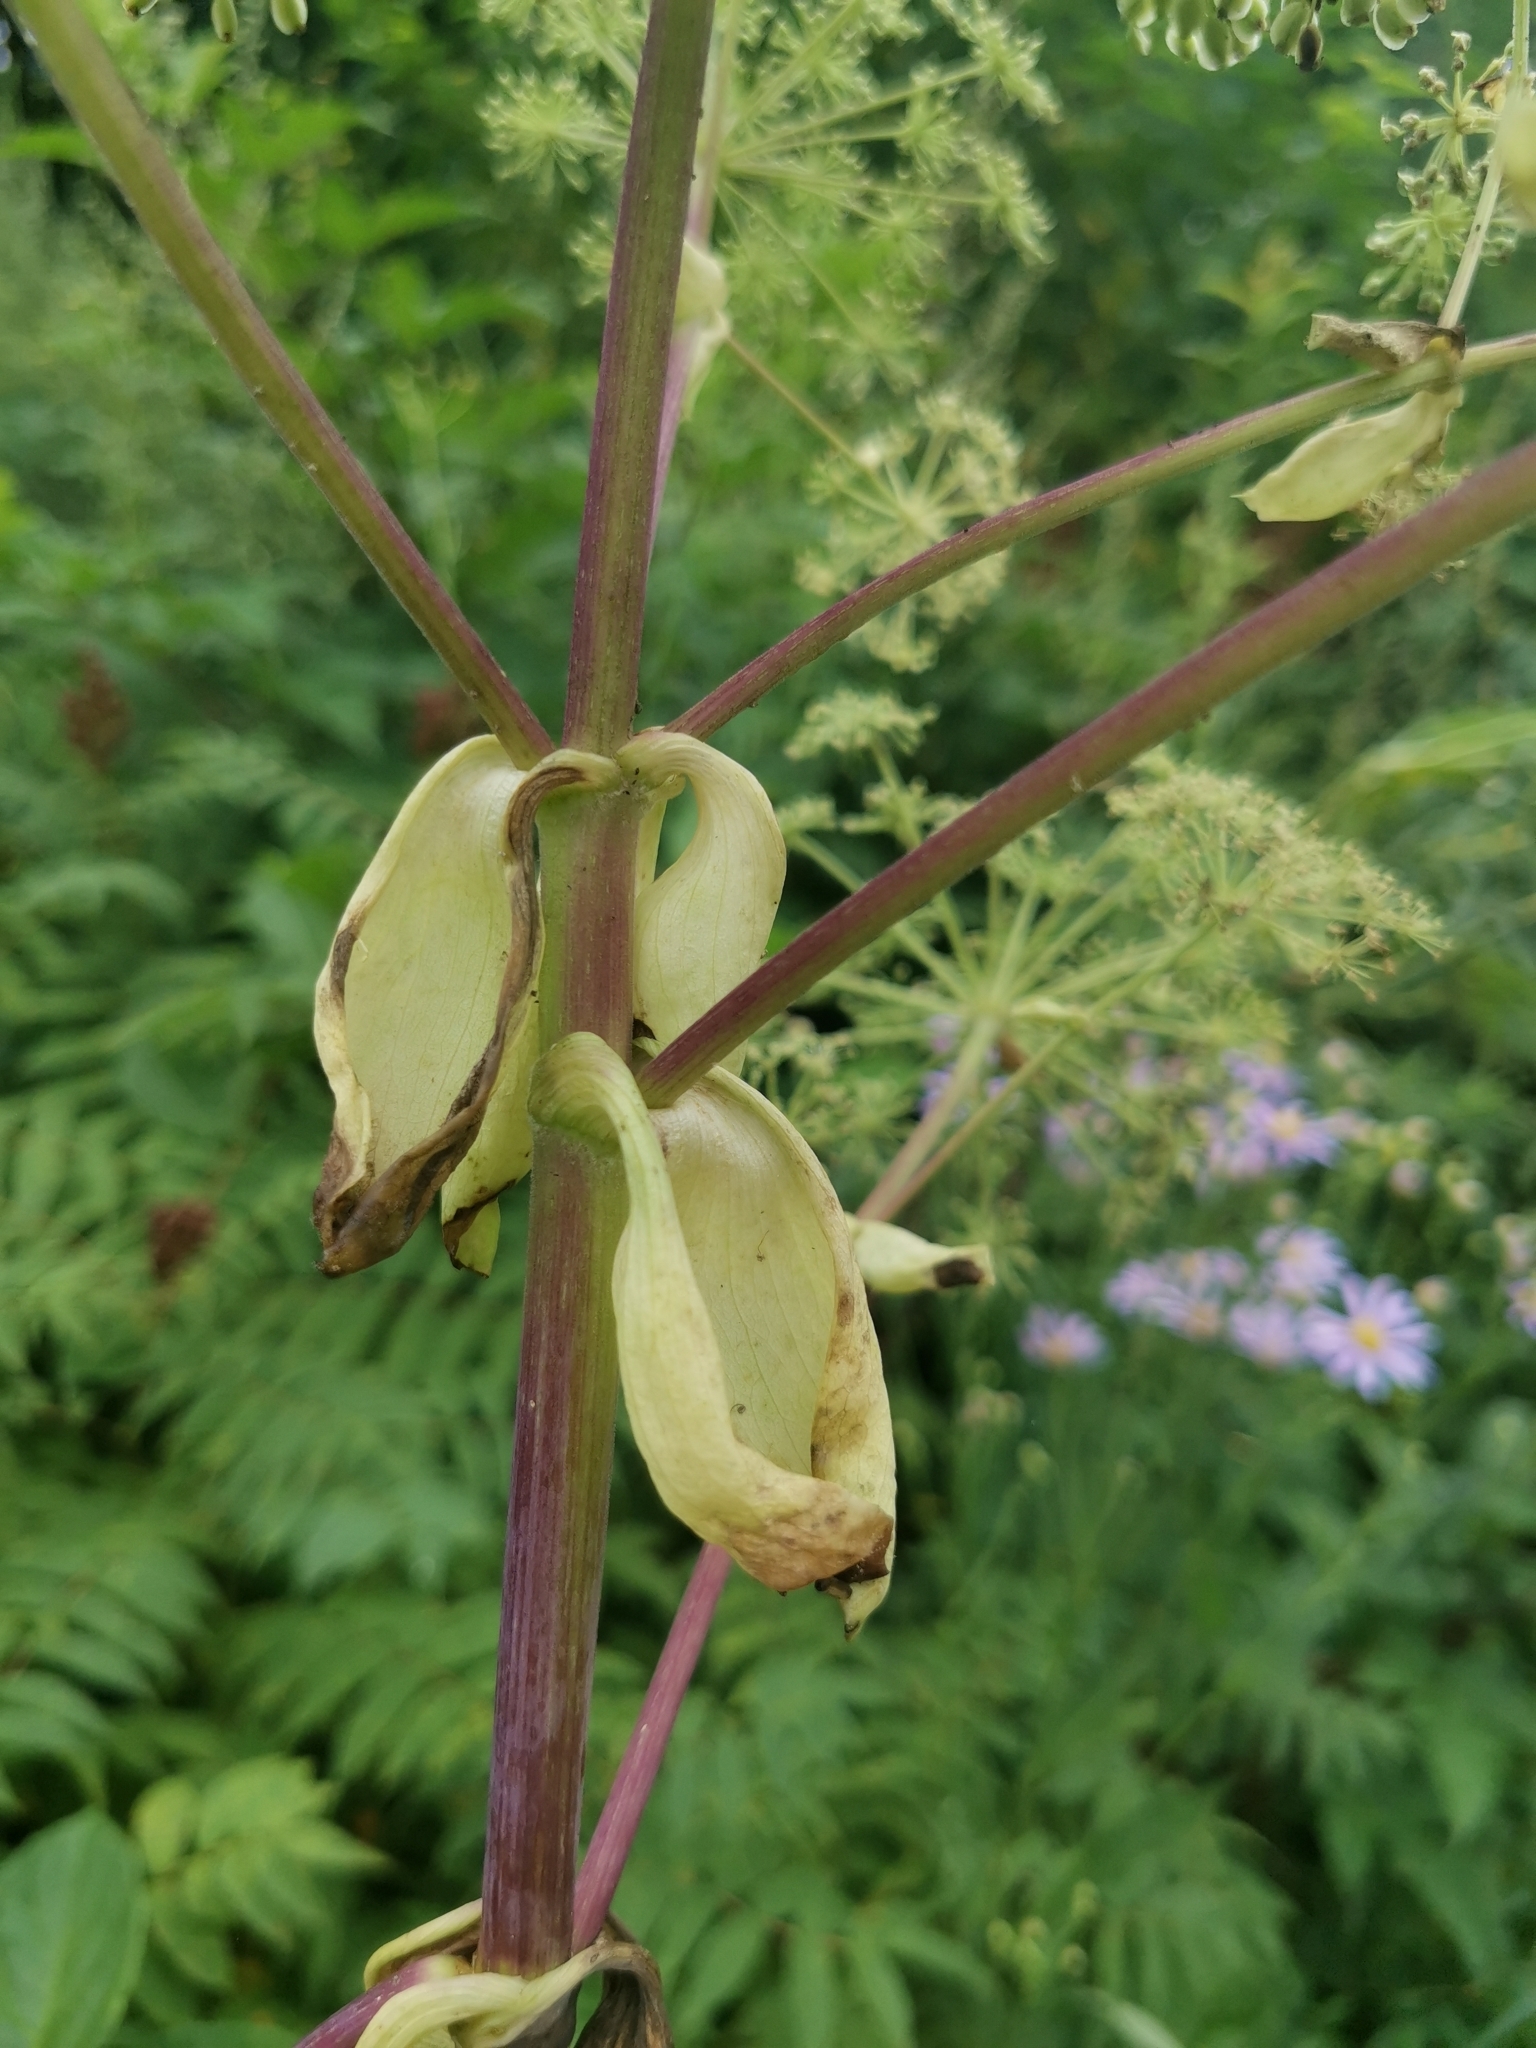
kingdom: Plantae
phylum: Tracheophyta
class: Magnoliopsida
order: Apiales
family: Apiaceae
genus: Angelica
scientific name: Angelica dahurica
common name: Dahurian angelica
